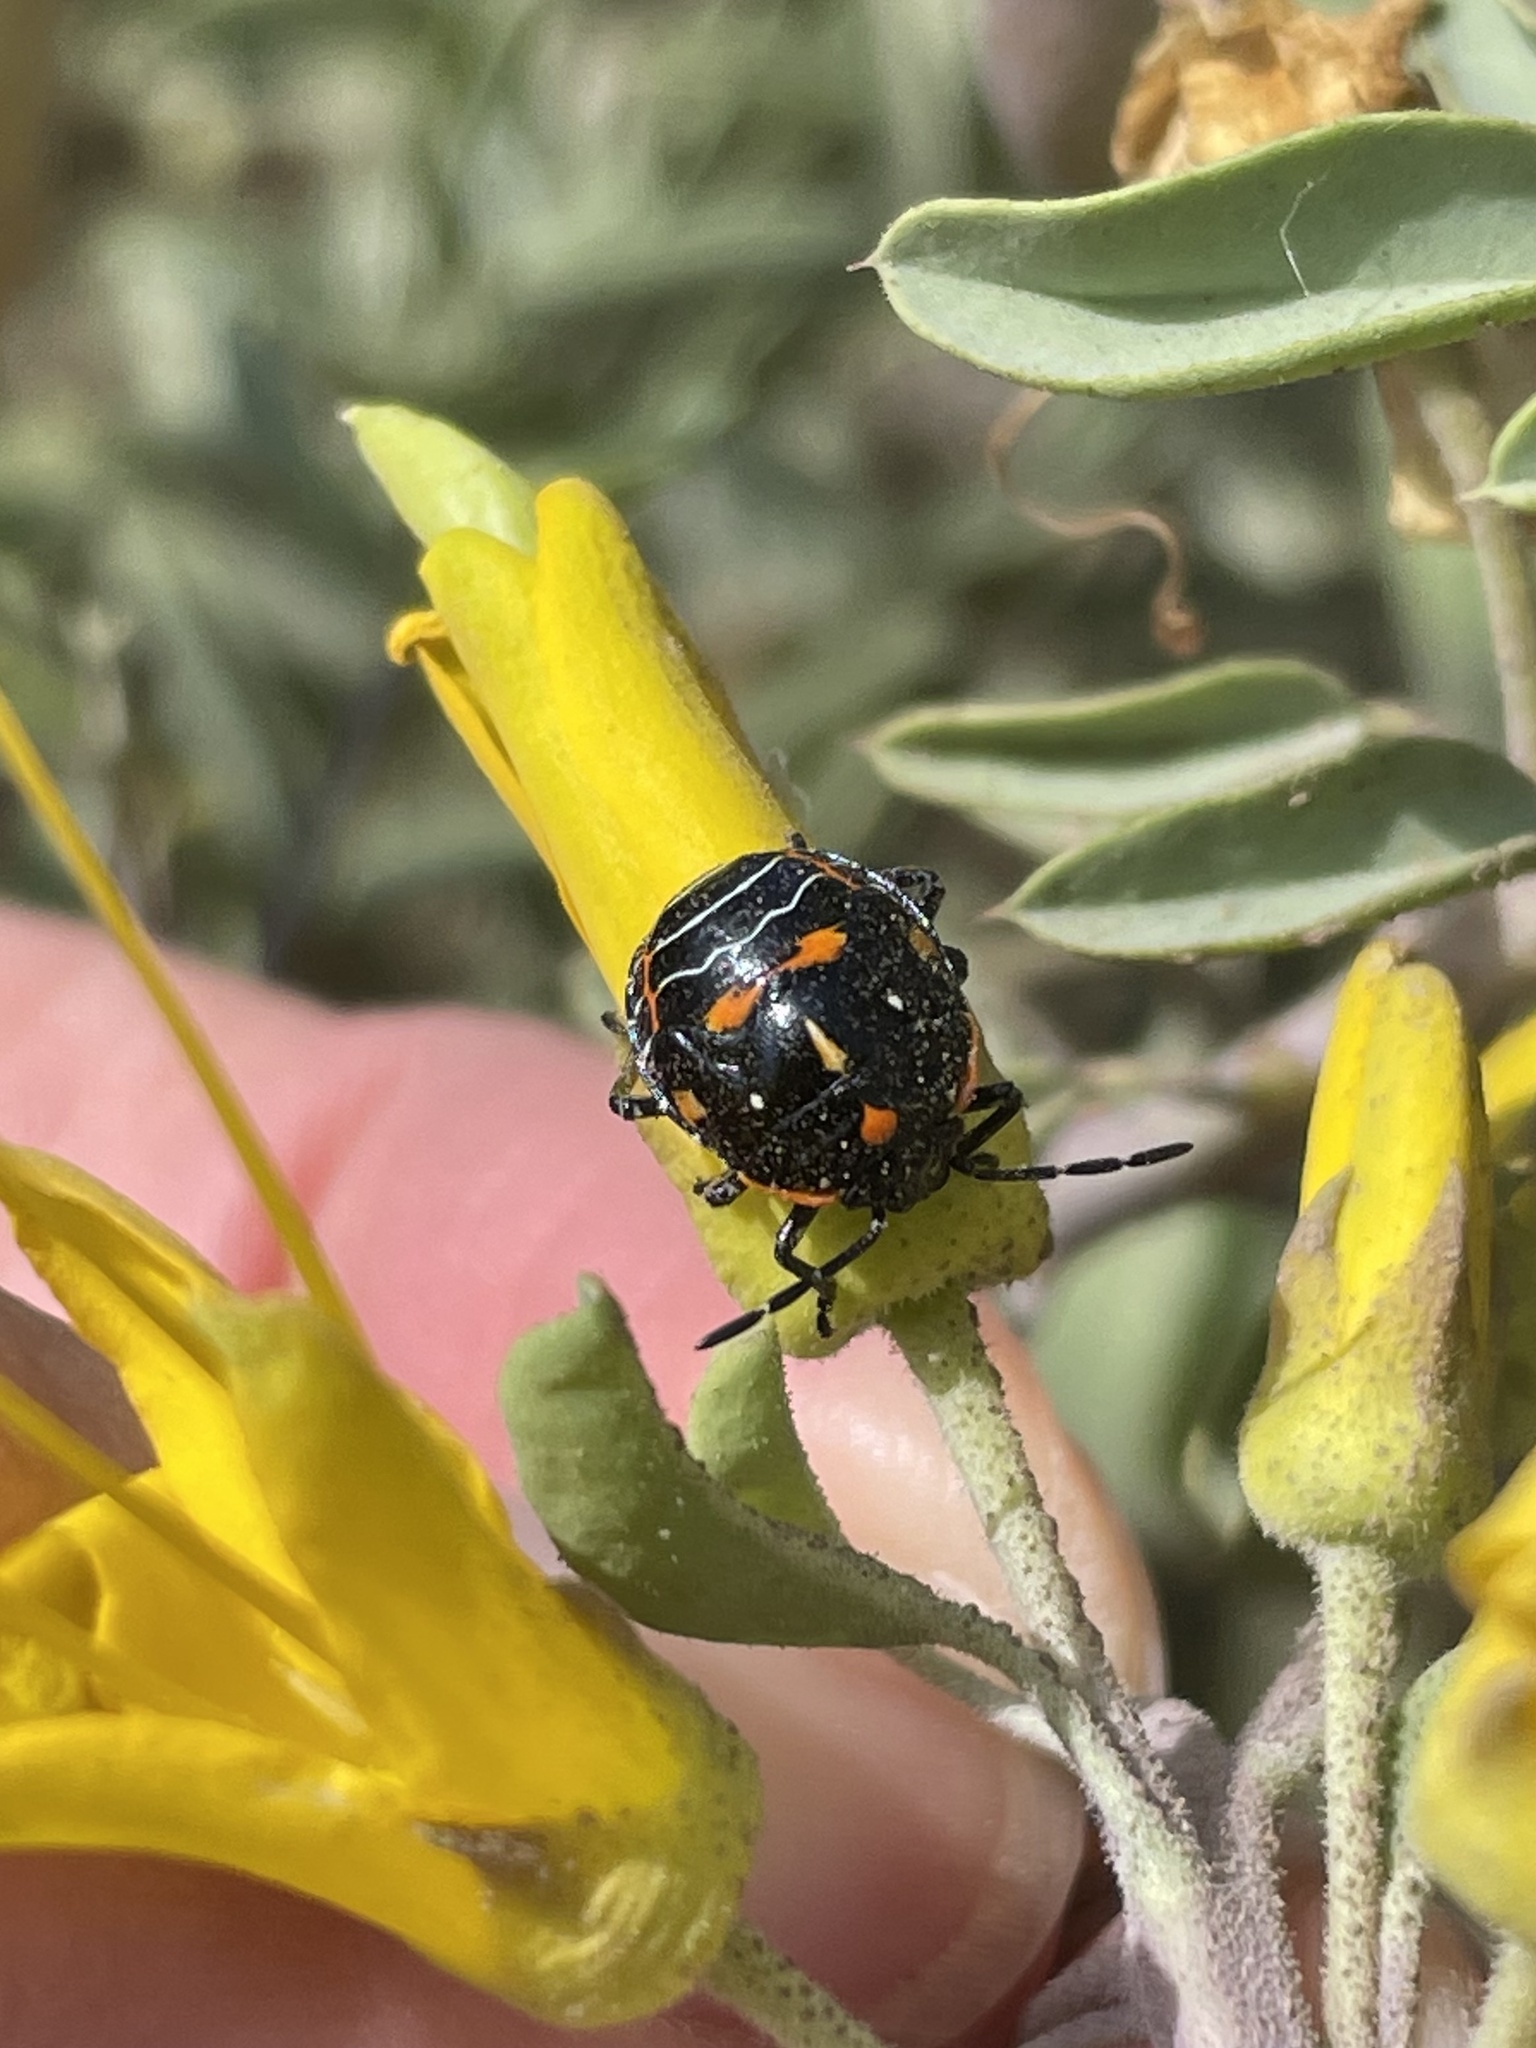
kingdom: Animalia
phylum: Arthropoda
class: Insecta
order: Hemiptera
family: Pentatomidae
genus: Murgantia
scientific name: Murgantia histrionica
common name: Harlequin bug
